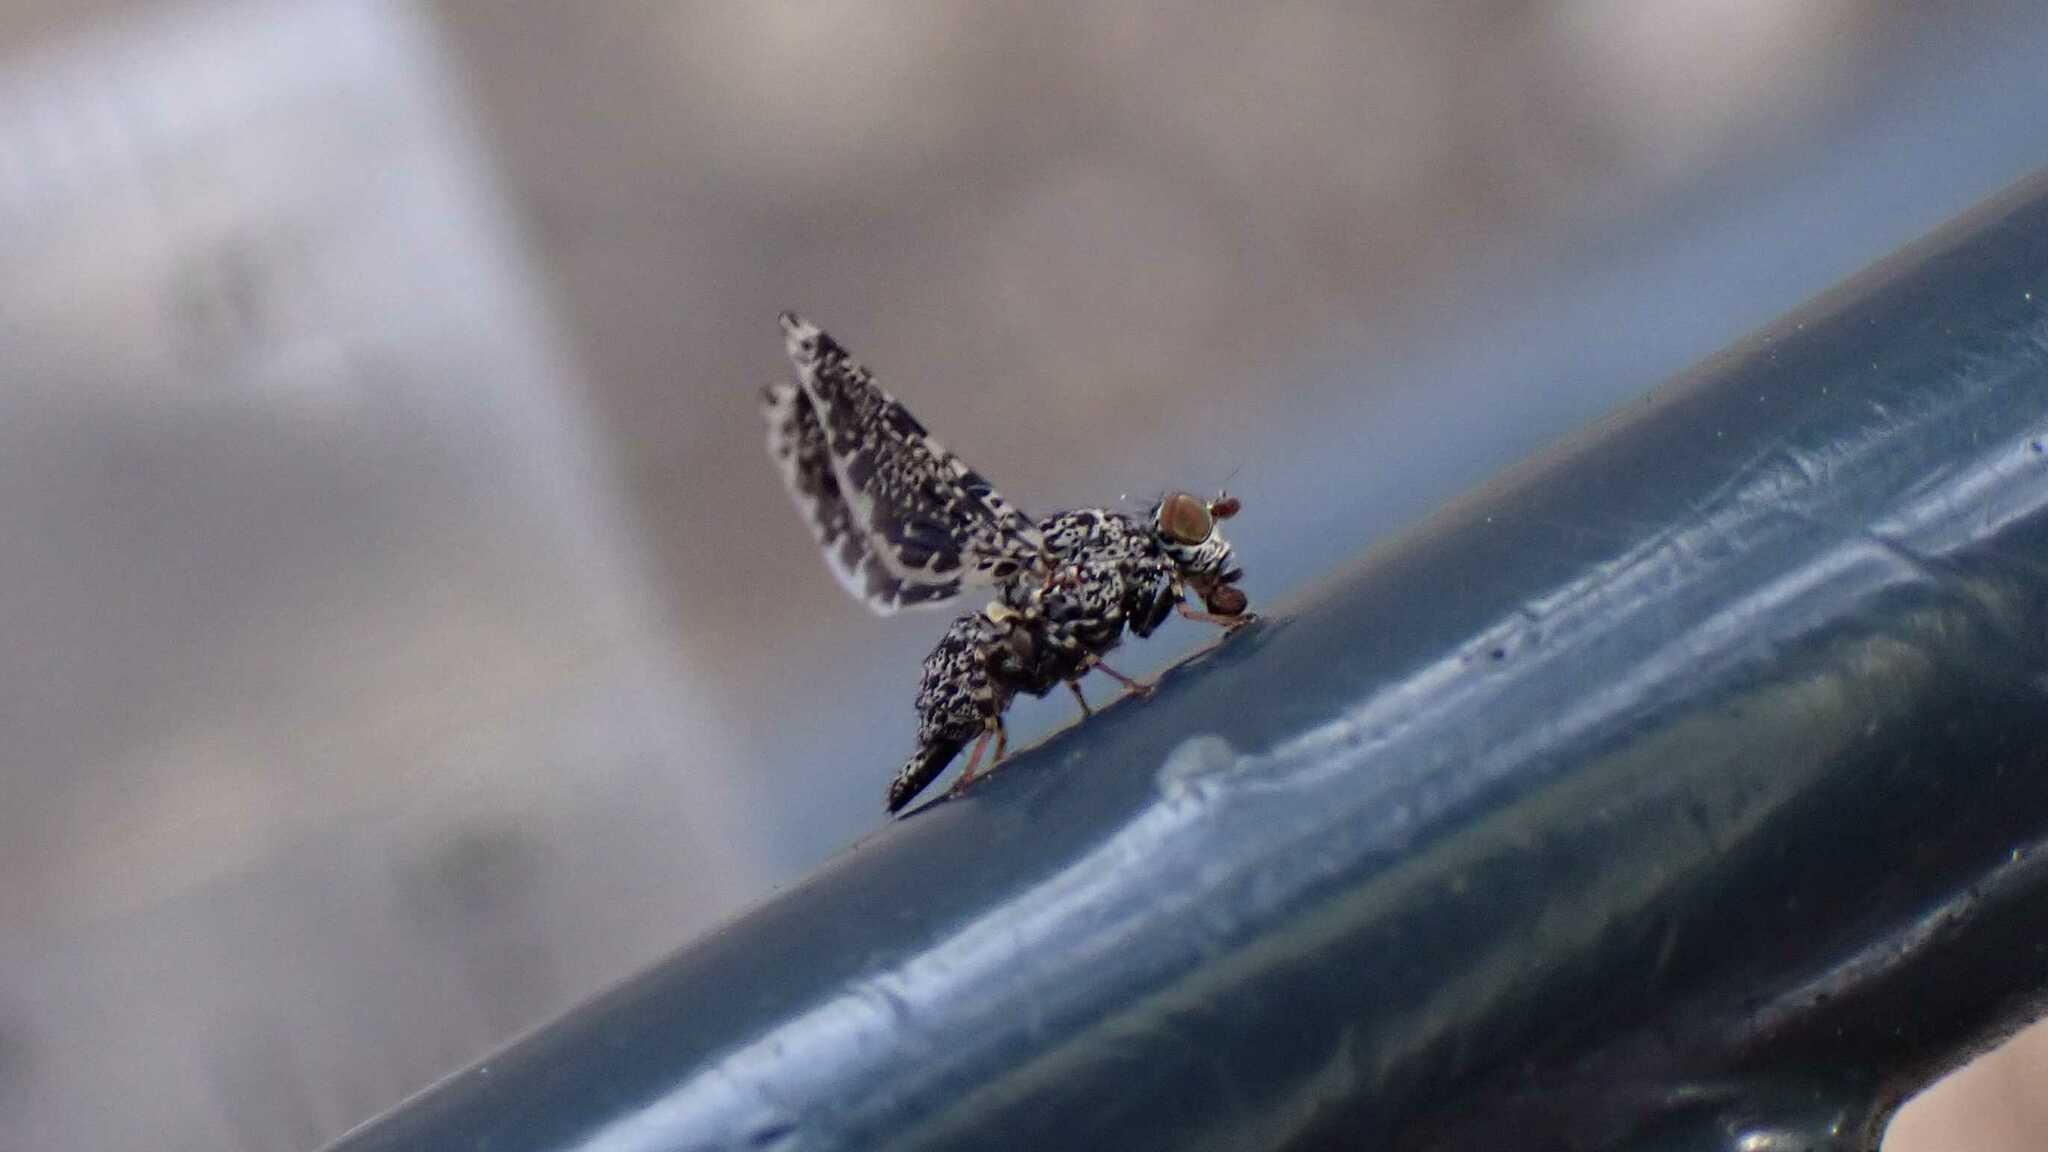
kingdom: Animalia
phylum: Arthropoda
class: Insecta
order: Diptera
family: Ulidiidae
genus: Callopistromyia
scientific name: Callopistromyia annulipes
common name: Peacock fly
